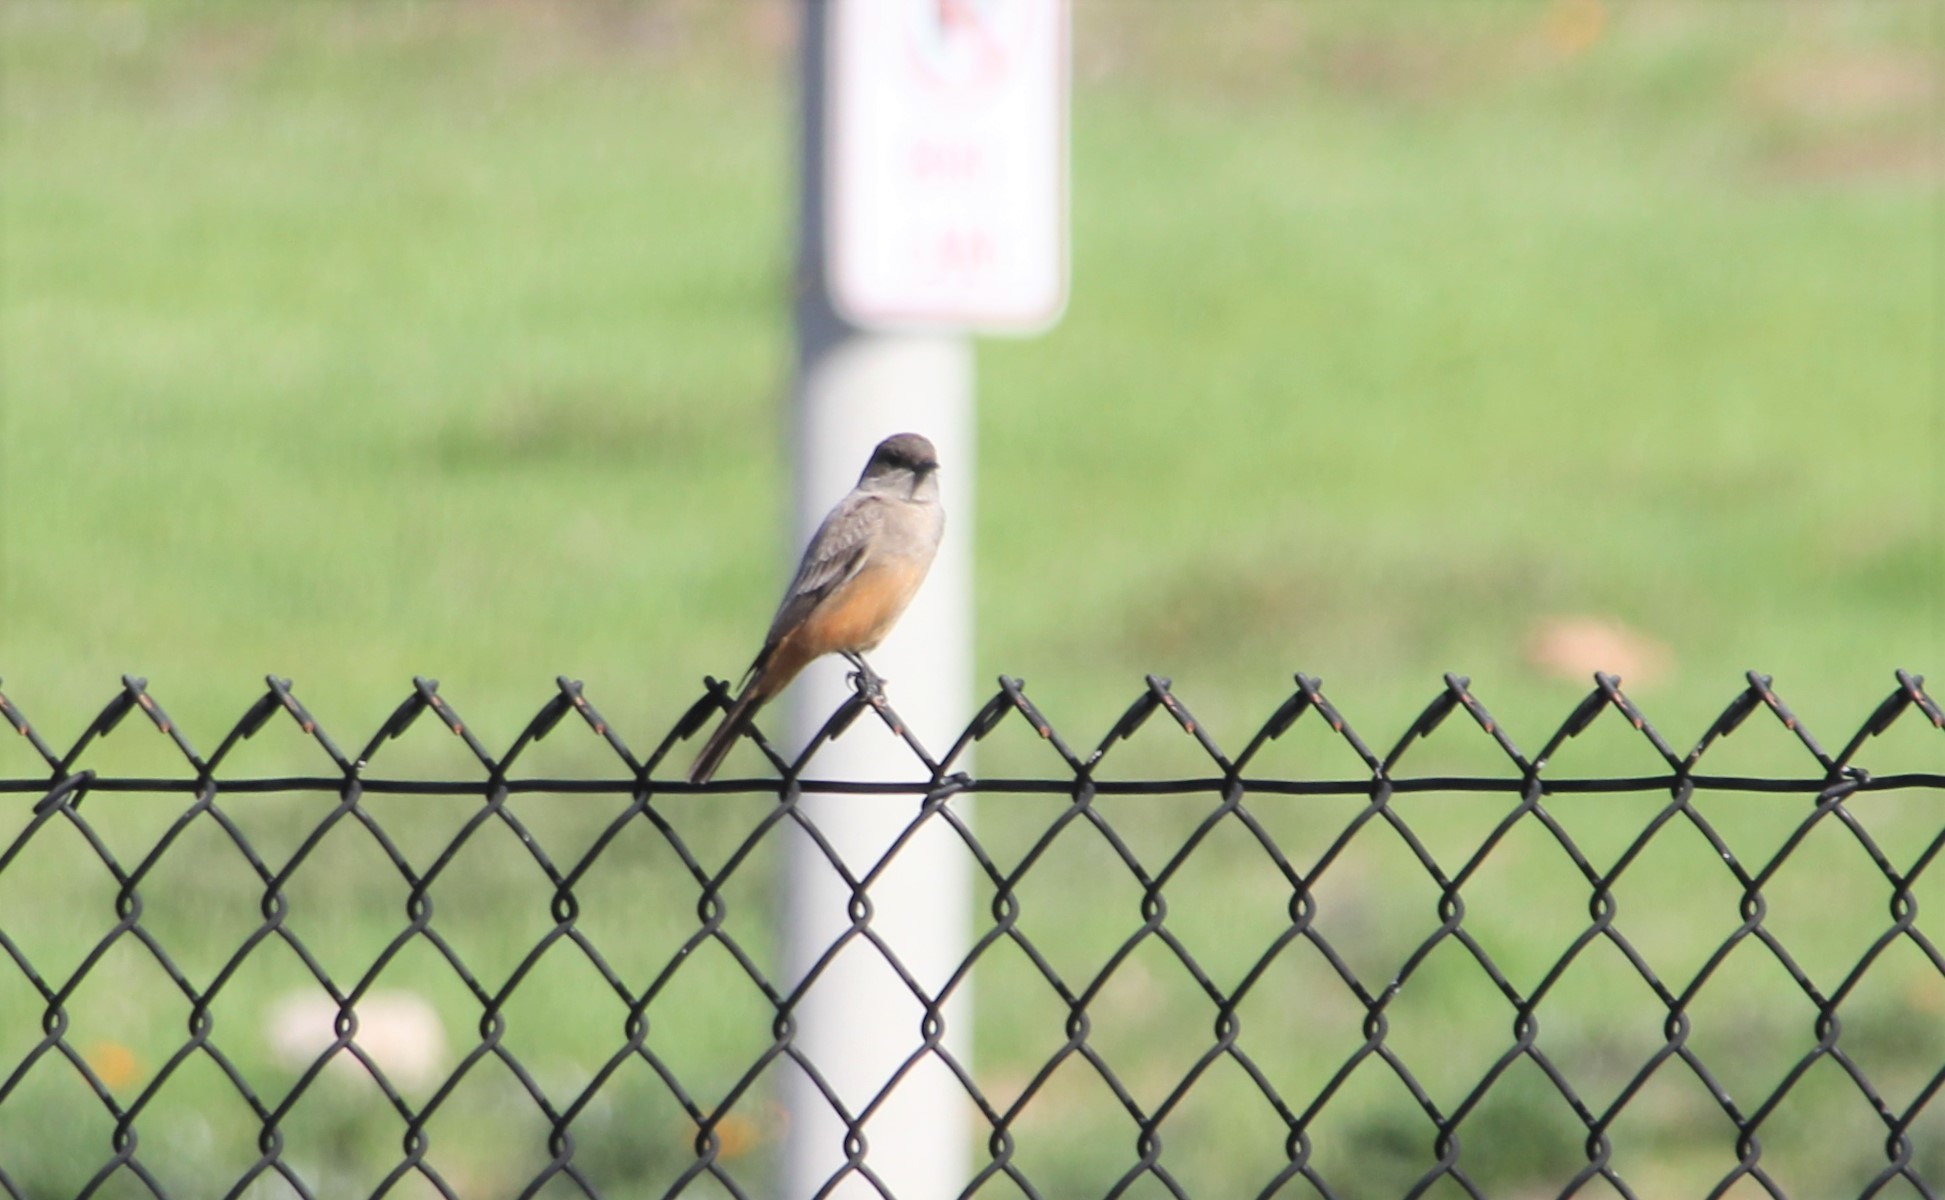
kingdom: Animalia
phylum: Chordata
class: Aves
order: Passeriformes
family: Tyrannidae
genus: Sayornis
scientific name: Sayornis saya
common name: Say's phoebe
